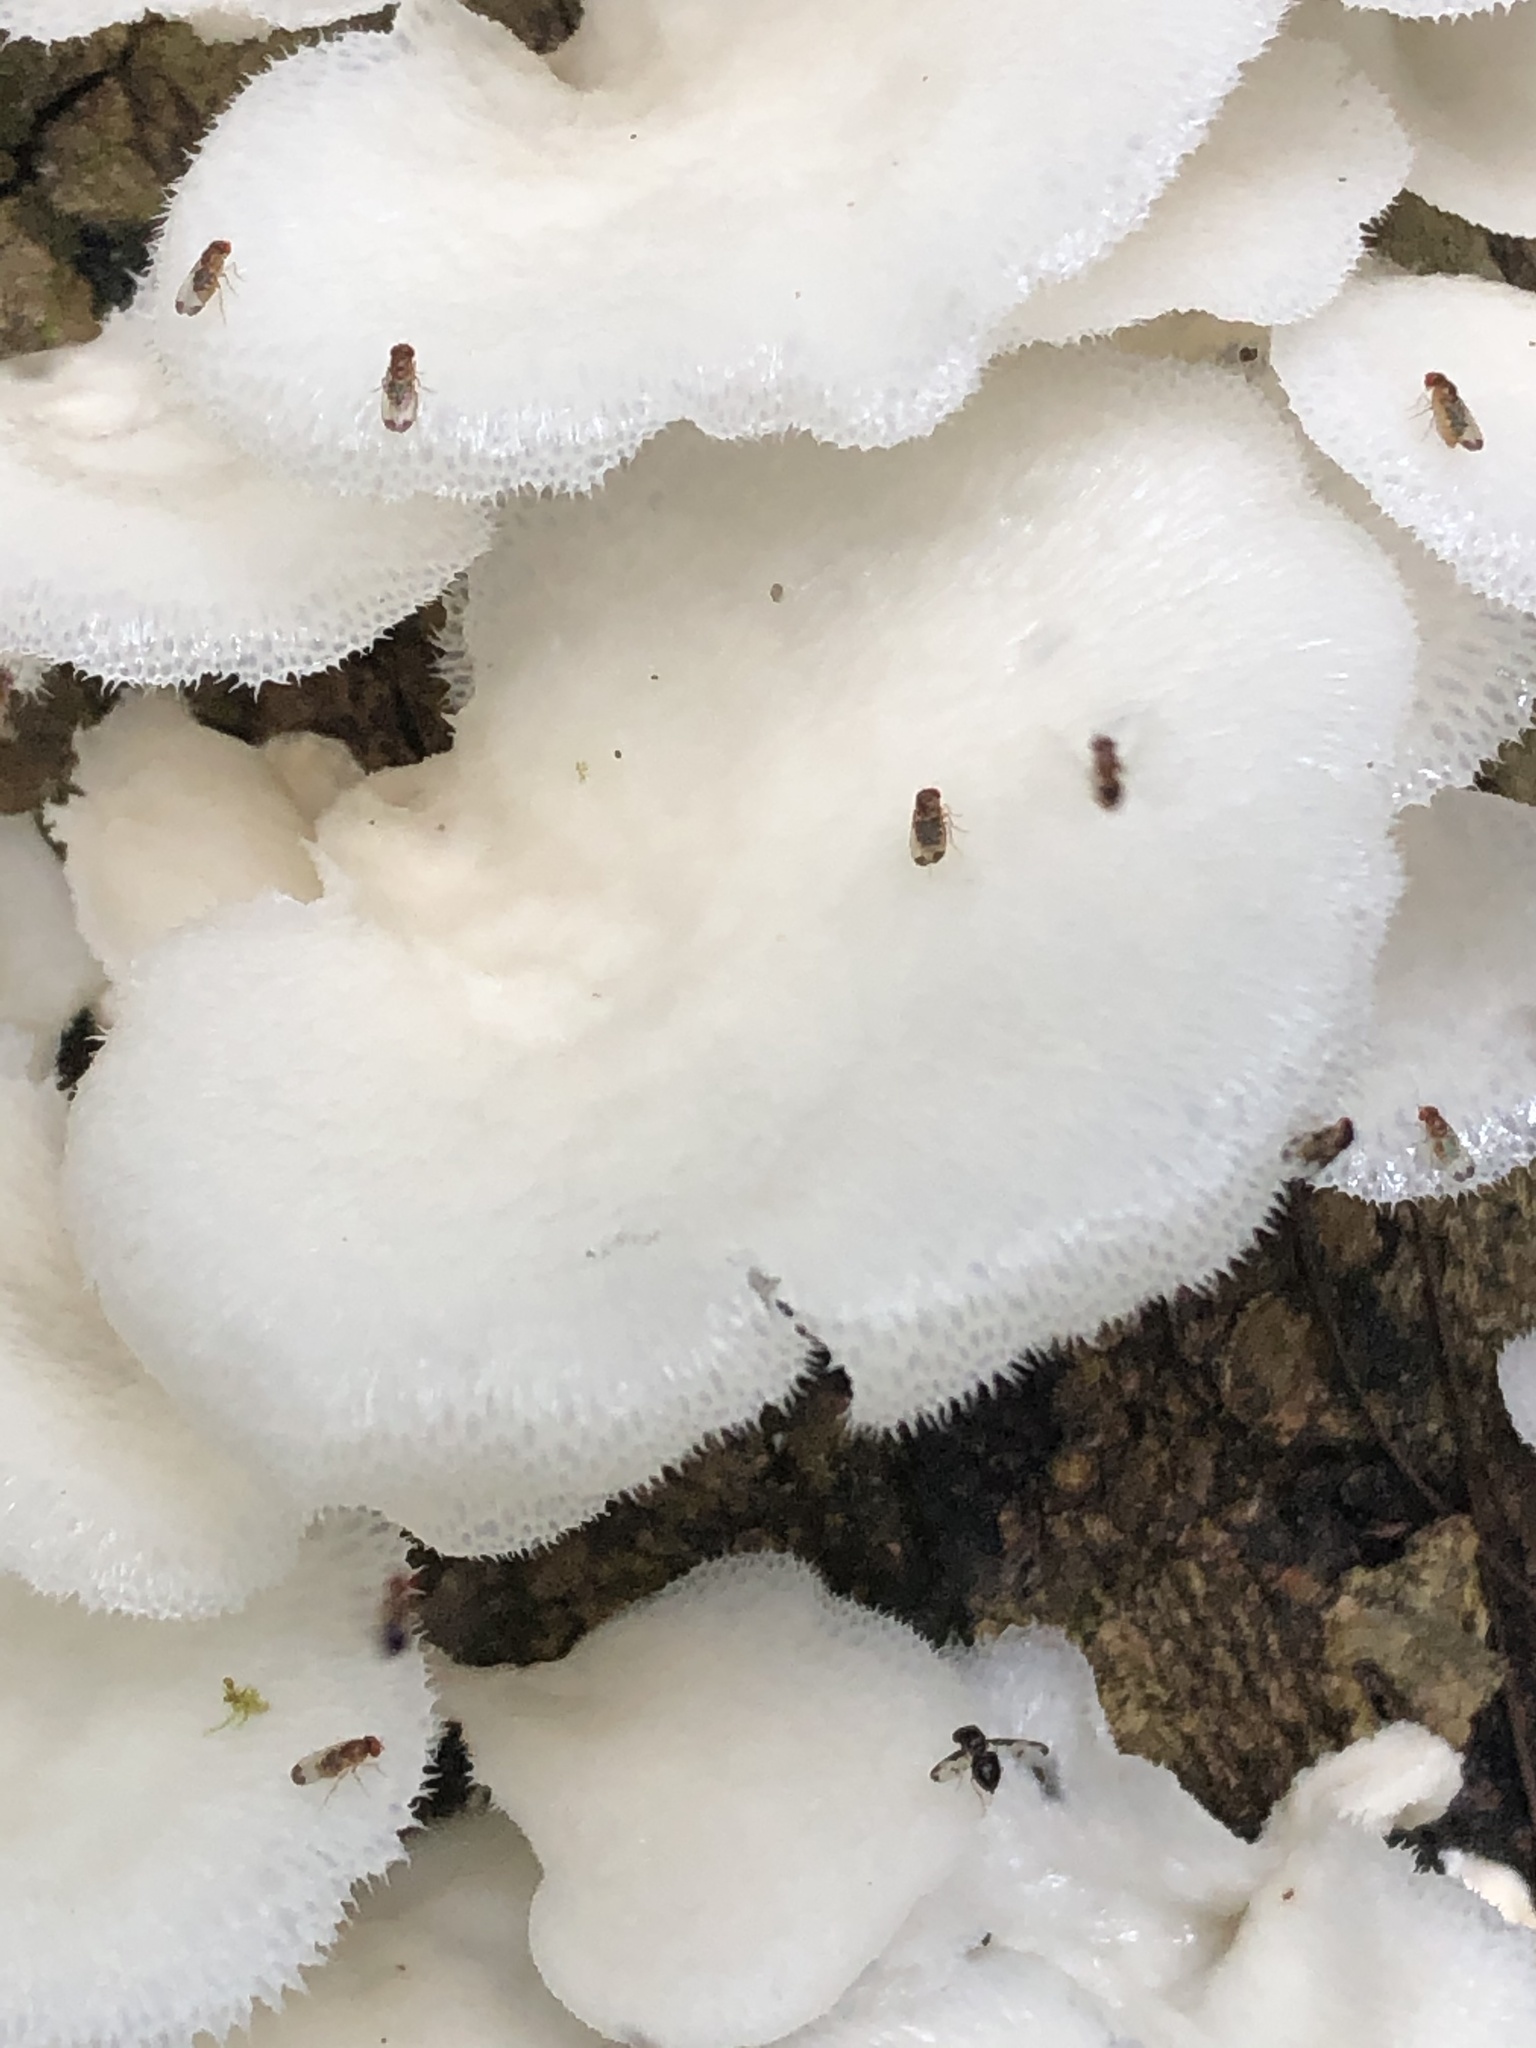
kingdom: Fungi
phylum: Basidiomycota
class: Agaricomycetes
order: Polyporales
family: Polyporaceae
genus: Favolus
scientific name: Favolus tenuiculus
